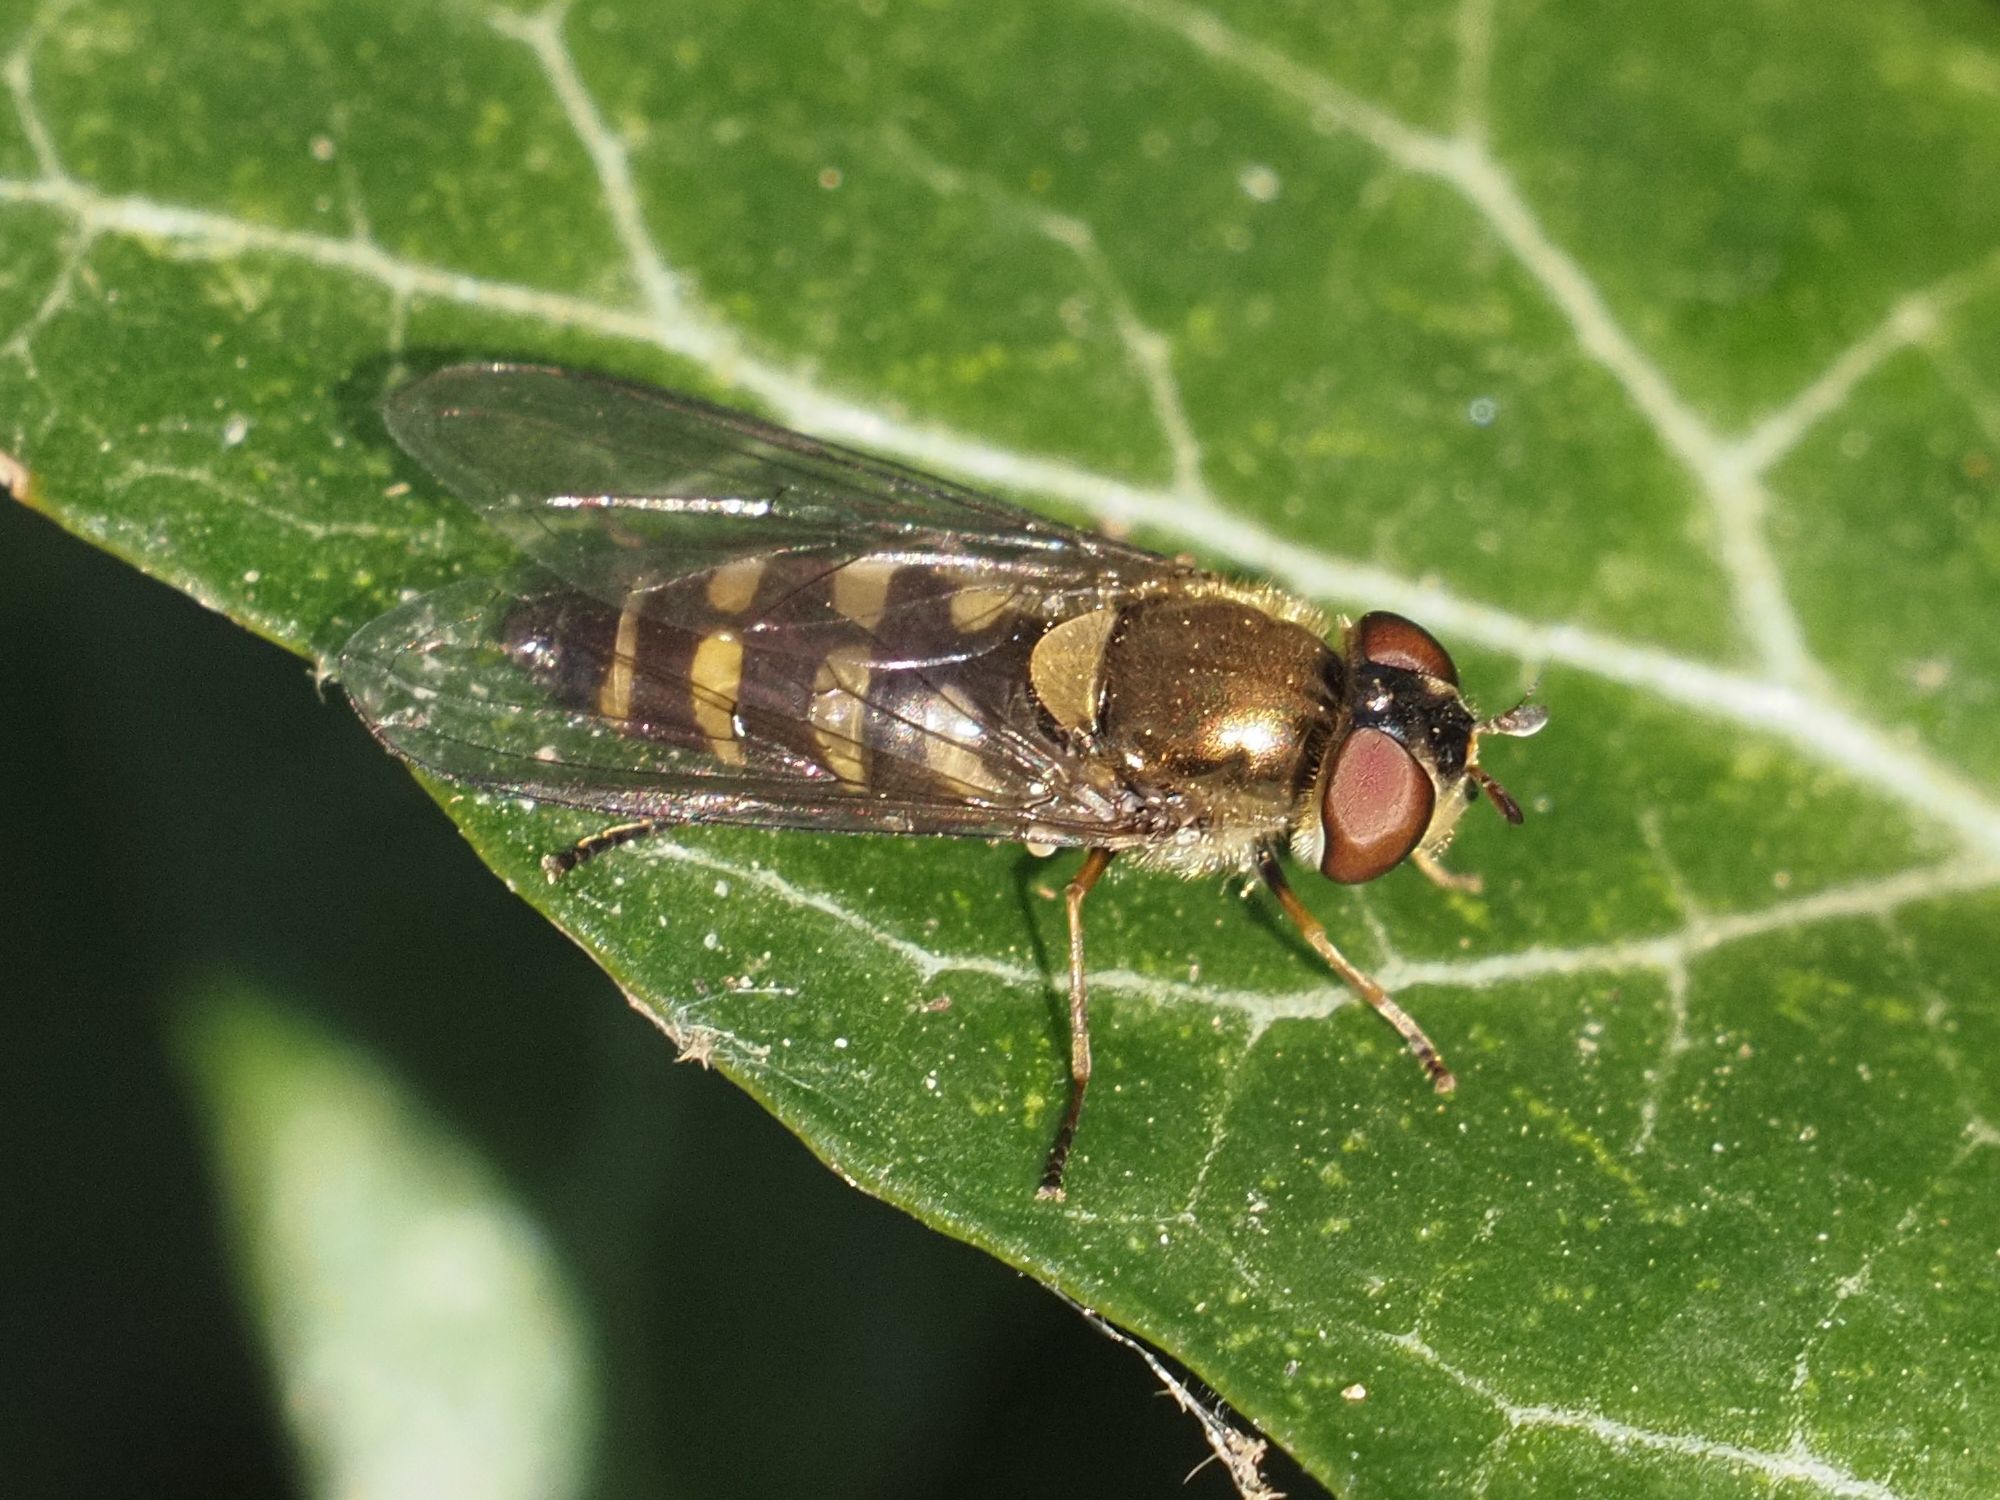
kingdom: Animalia
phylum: Arthropoda
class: Insecta
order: Diptera
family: Syrphidae
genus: Parasyrphus
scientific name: Parasyrphus punctulatus
